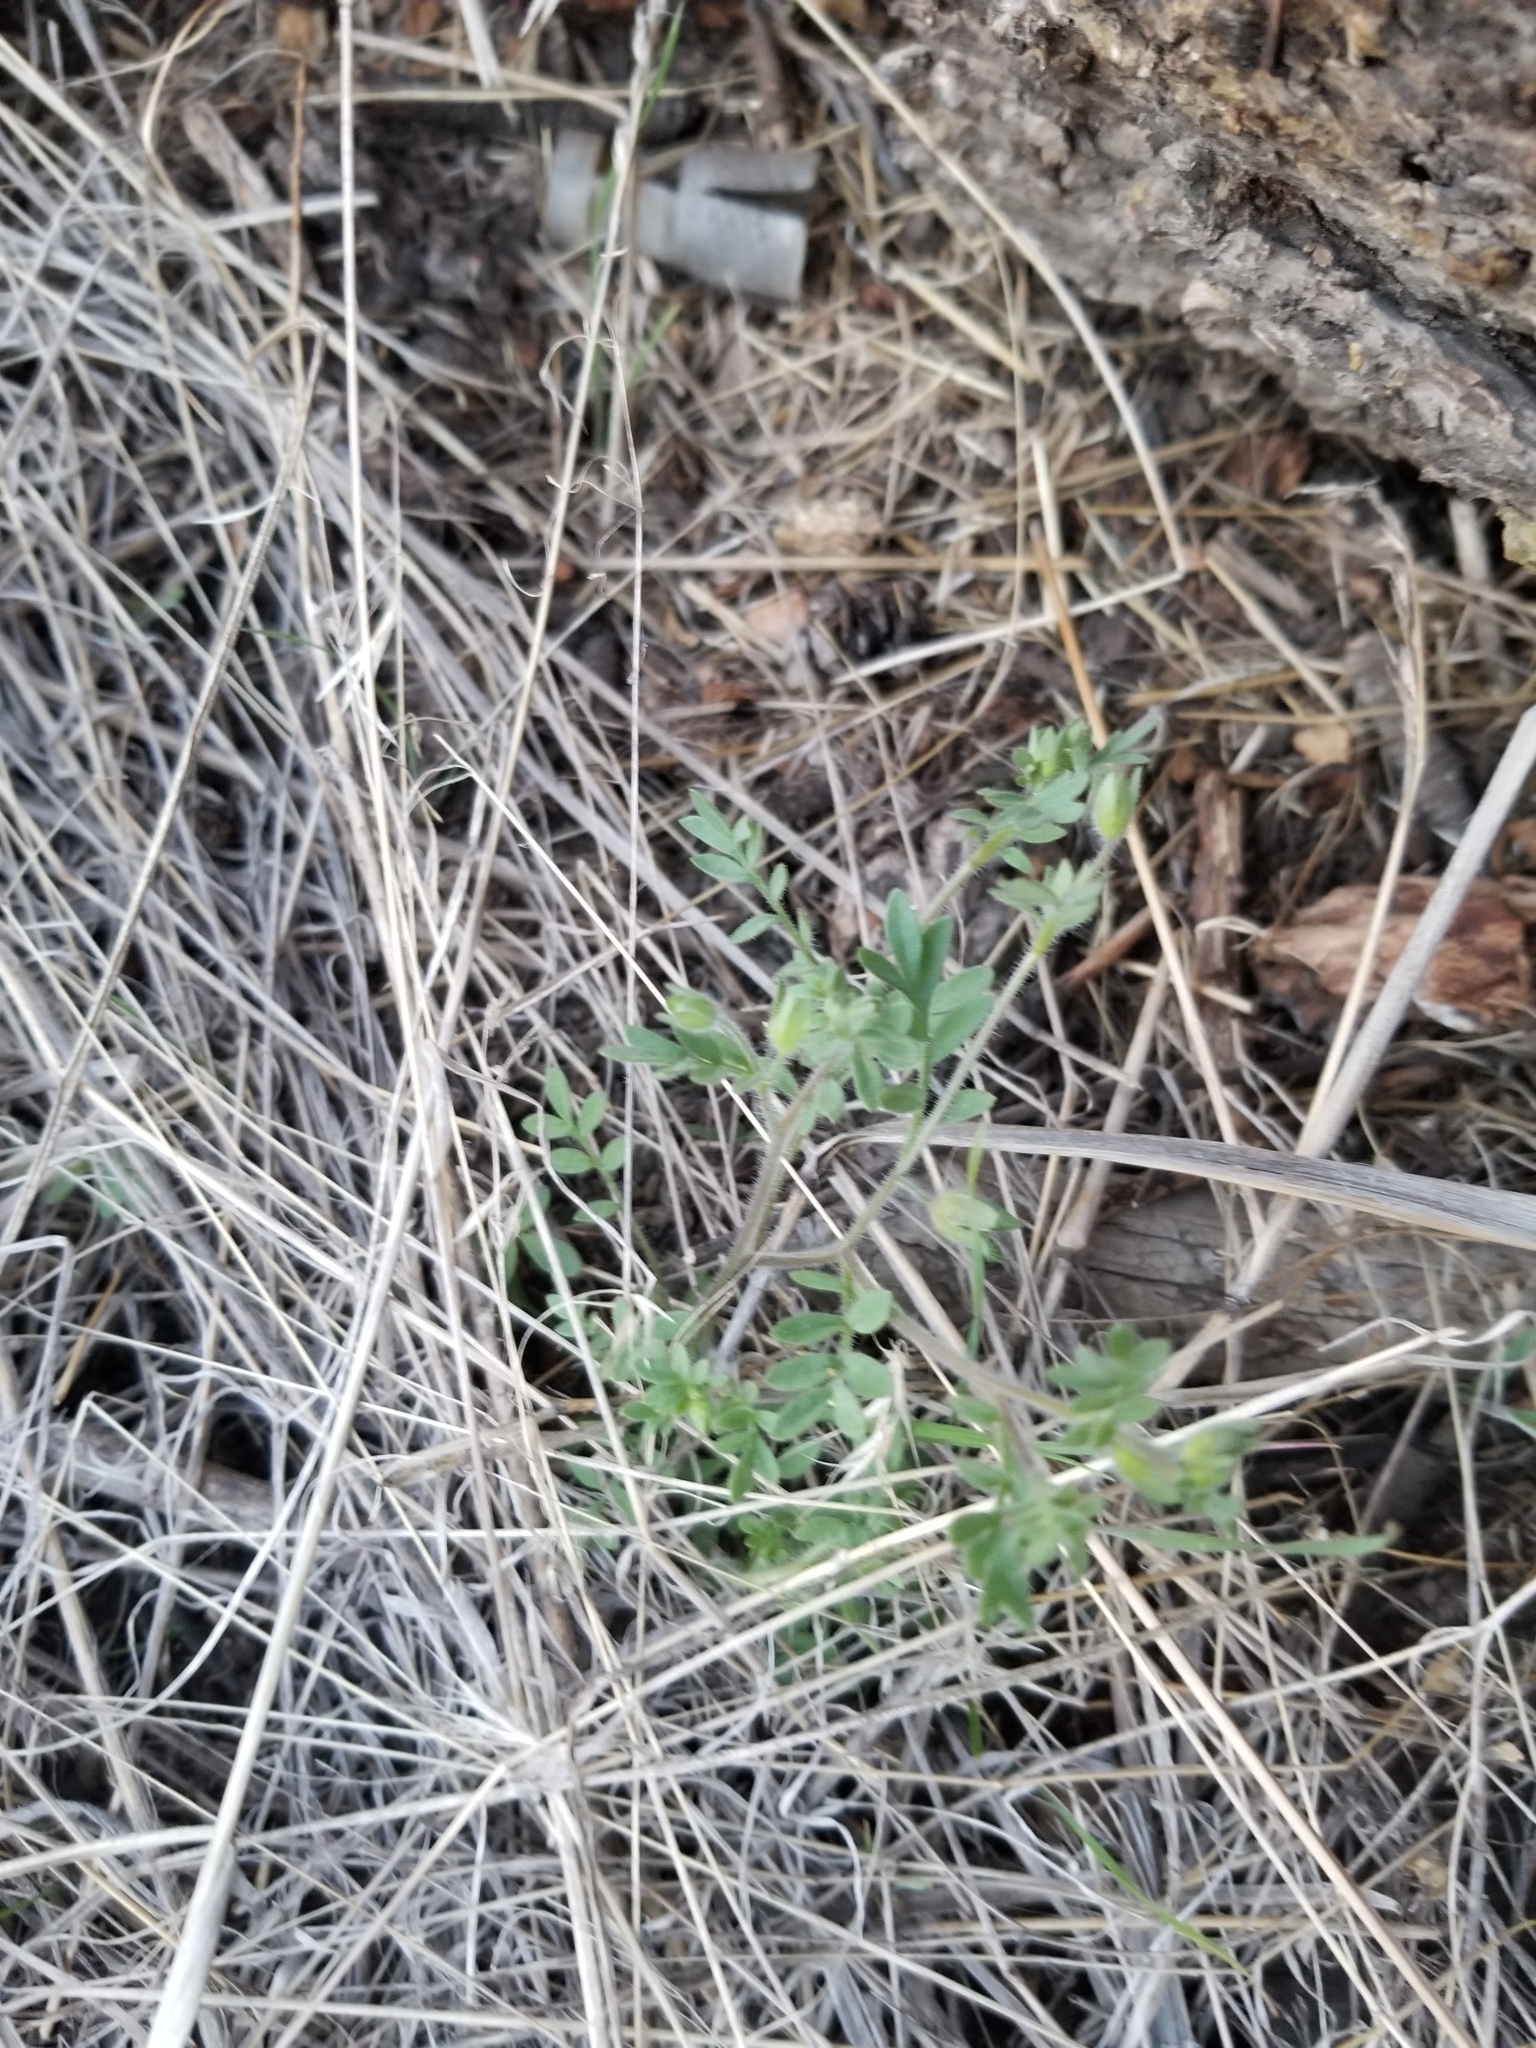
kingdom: Plantae
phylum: Tracheophyta
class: Magnoliopsida
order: Ericales
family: Polemoniaceae
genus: Polemonium
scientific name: Polemonium micranthum
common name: Annual jacob's-ladder
